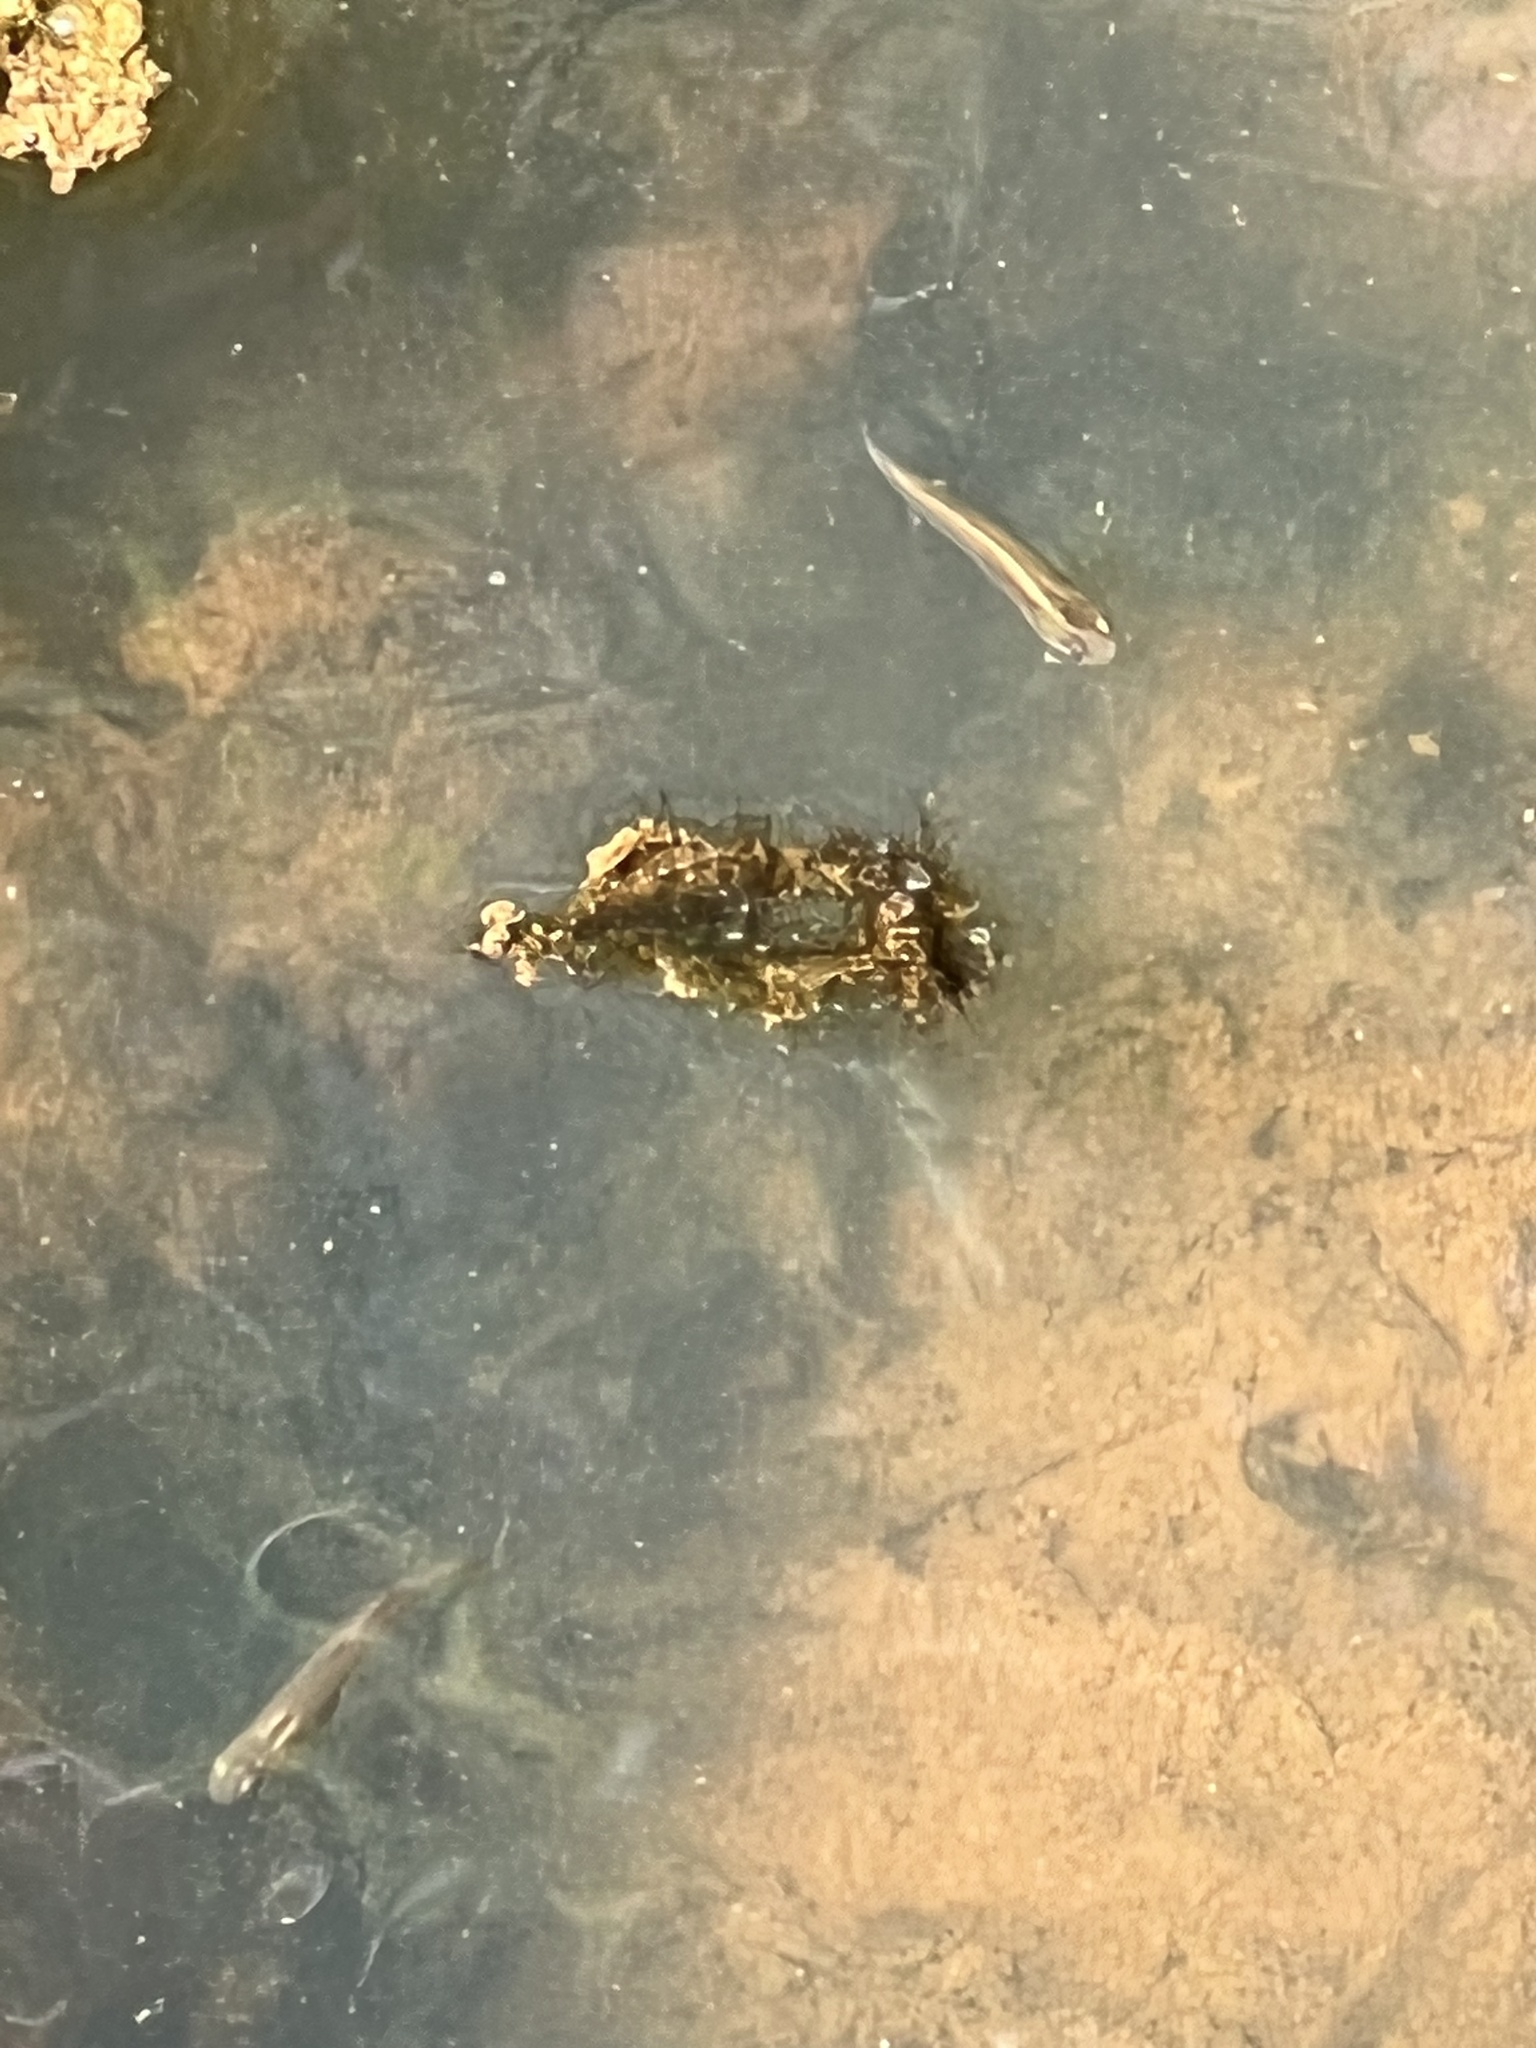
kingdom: Animalia
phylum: Chordata
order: Cyprinodontiformes
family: Poeciliidae
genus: Gambusia
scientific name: Gambusia holbrooki
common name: Eastern mosquitofish
